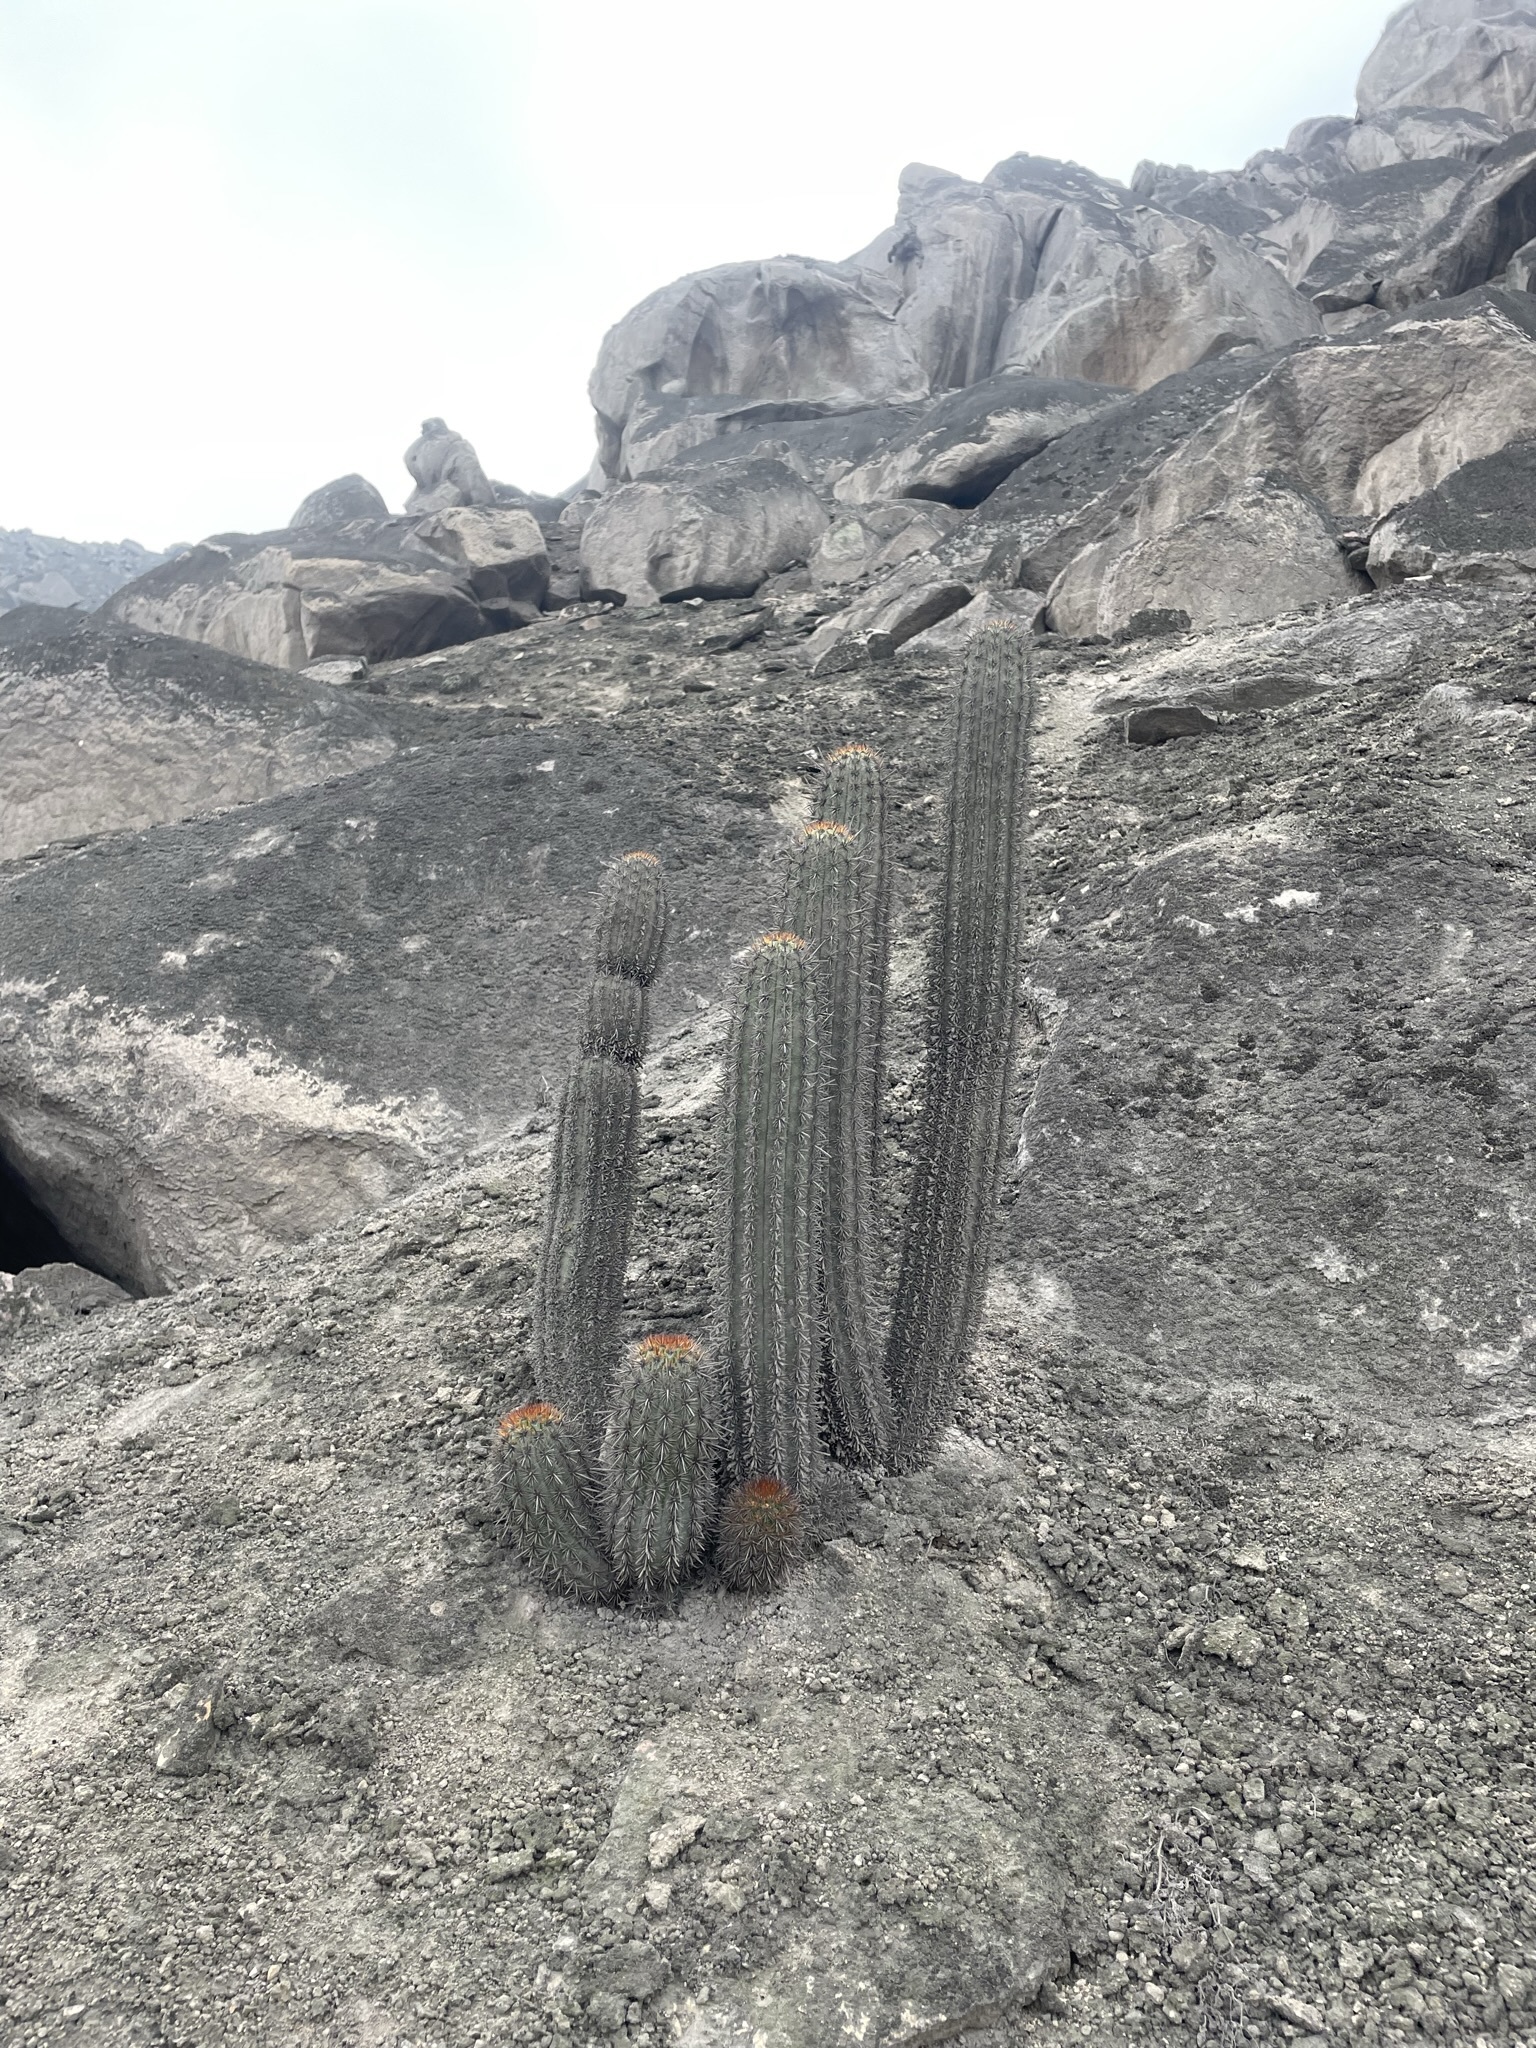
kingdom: Plantae
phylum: Tracheophyta
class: Magnoliopsida
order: Caryophyllales
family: Cactaceae
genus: Haageocereus
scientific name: Haageocereus acranthus
